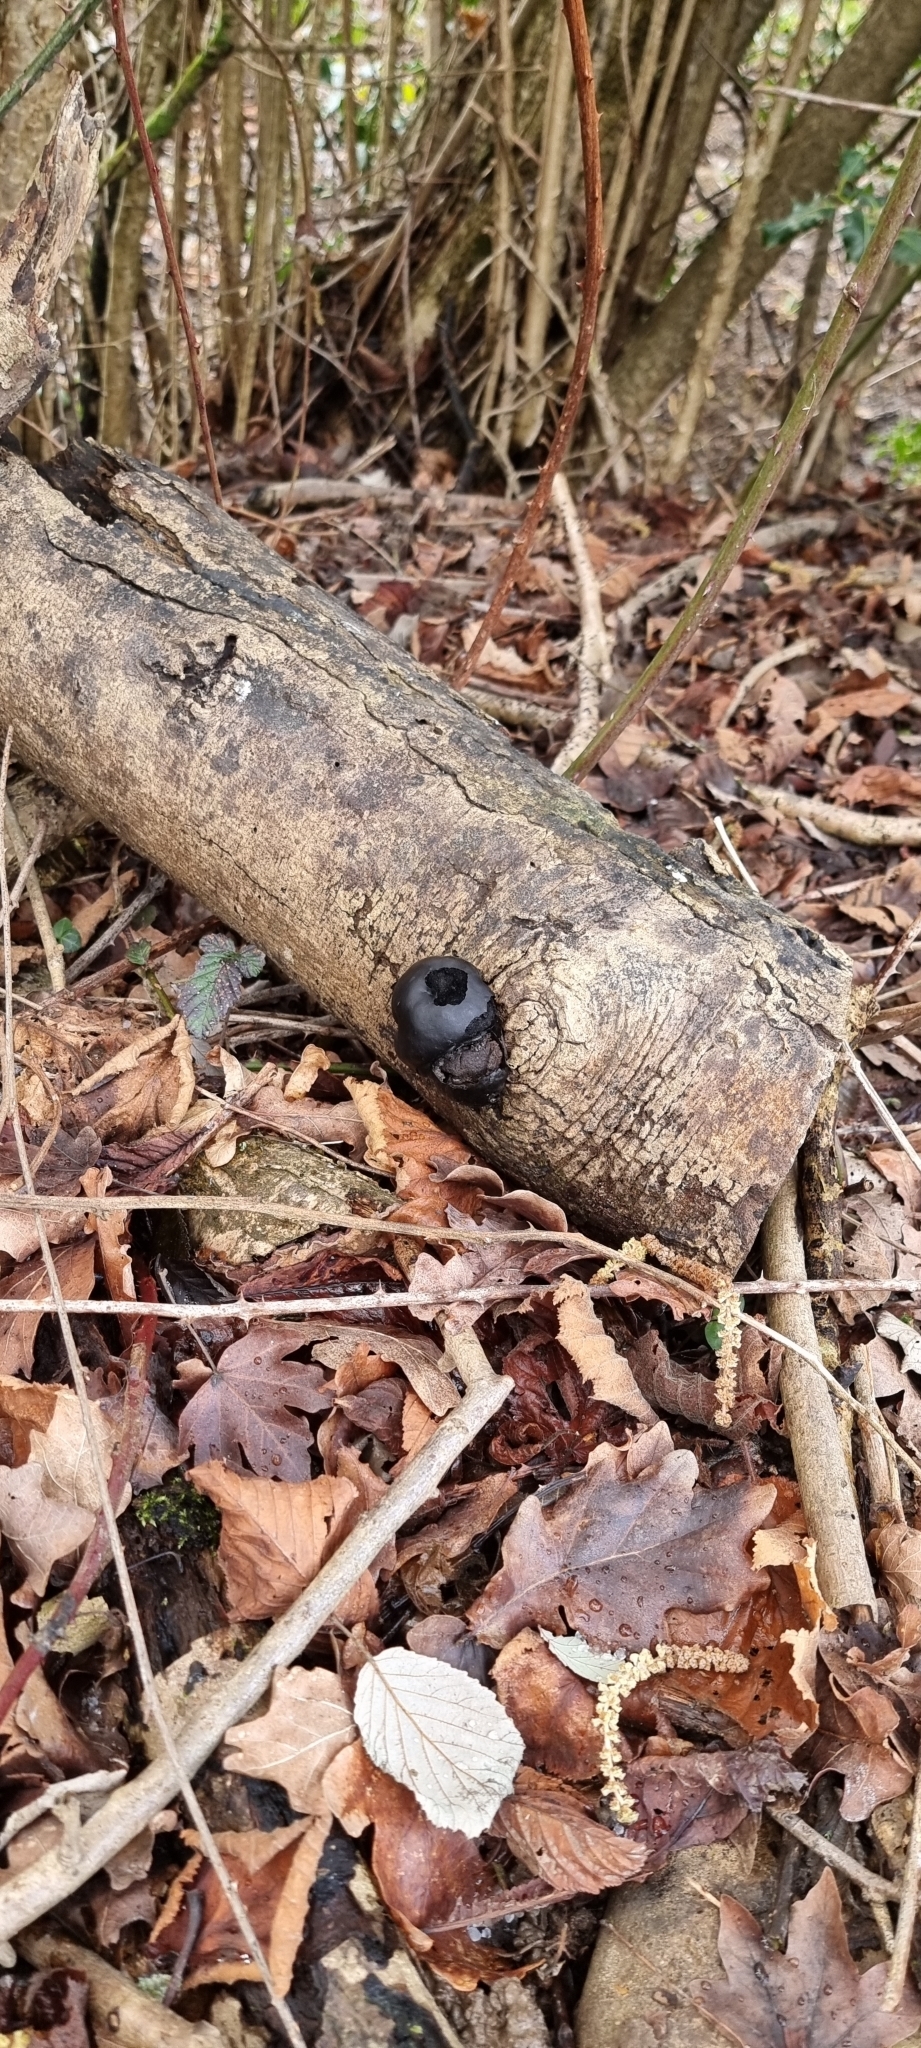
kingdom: Fungi
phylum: Ascomycota
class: Sordariomycetes
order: Xylariales
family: Hypoxylaceae
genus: Daldinia
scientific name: Daldinia concentrica
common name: Cramp balls
